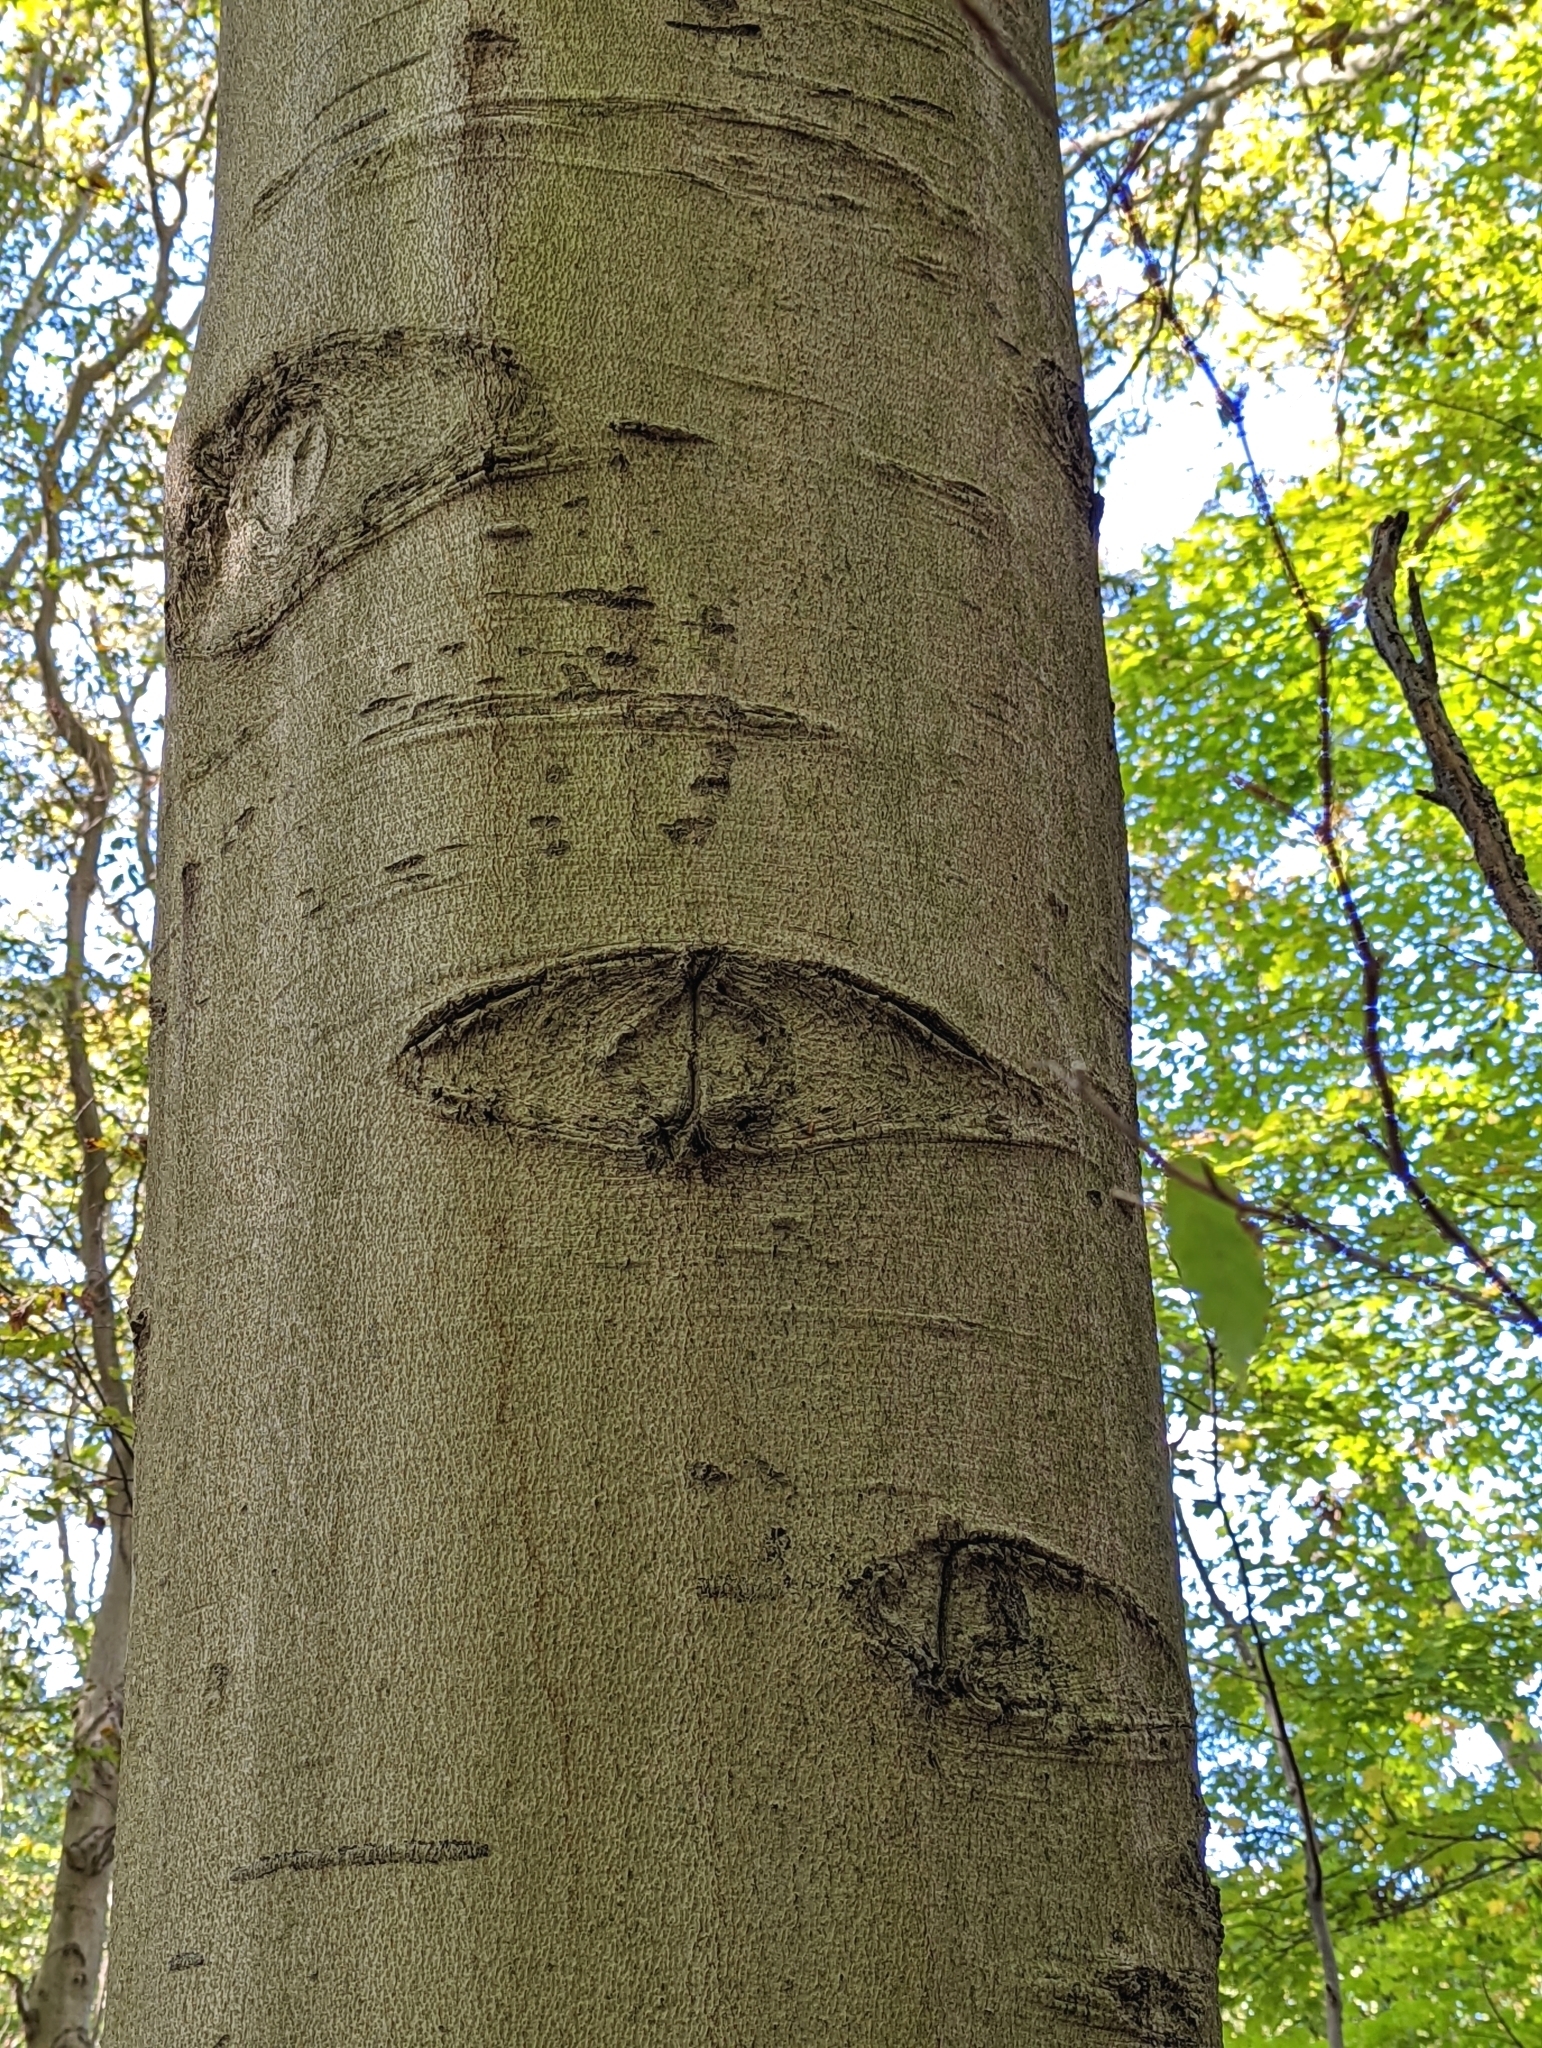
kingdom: Plantae
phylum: Tracheophyta
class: Magnoliopsida
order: Fagales
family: Fagaceae
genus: Fagus
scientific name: Fagus grandifolia
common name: American beech
